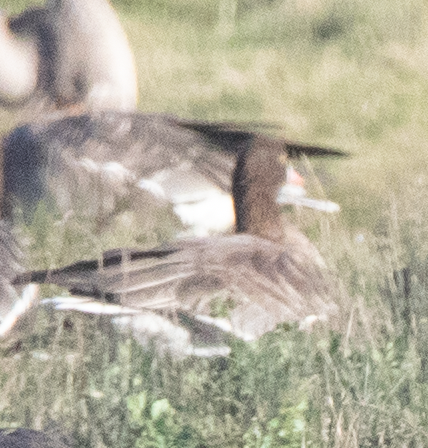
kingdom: Animalia
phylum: Chordata
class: Aves
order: Anseriformes
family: Anatidae
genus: Anser
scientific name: Anser erythropus
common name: Lesser white-fronted goose
